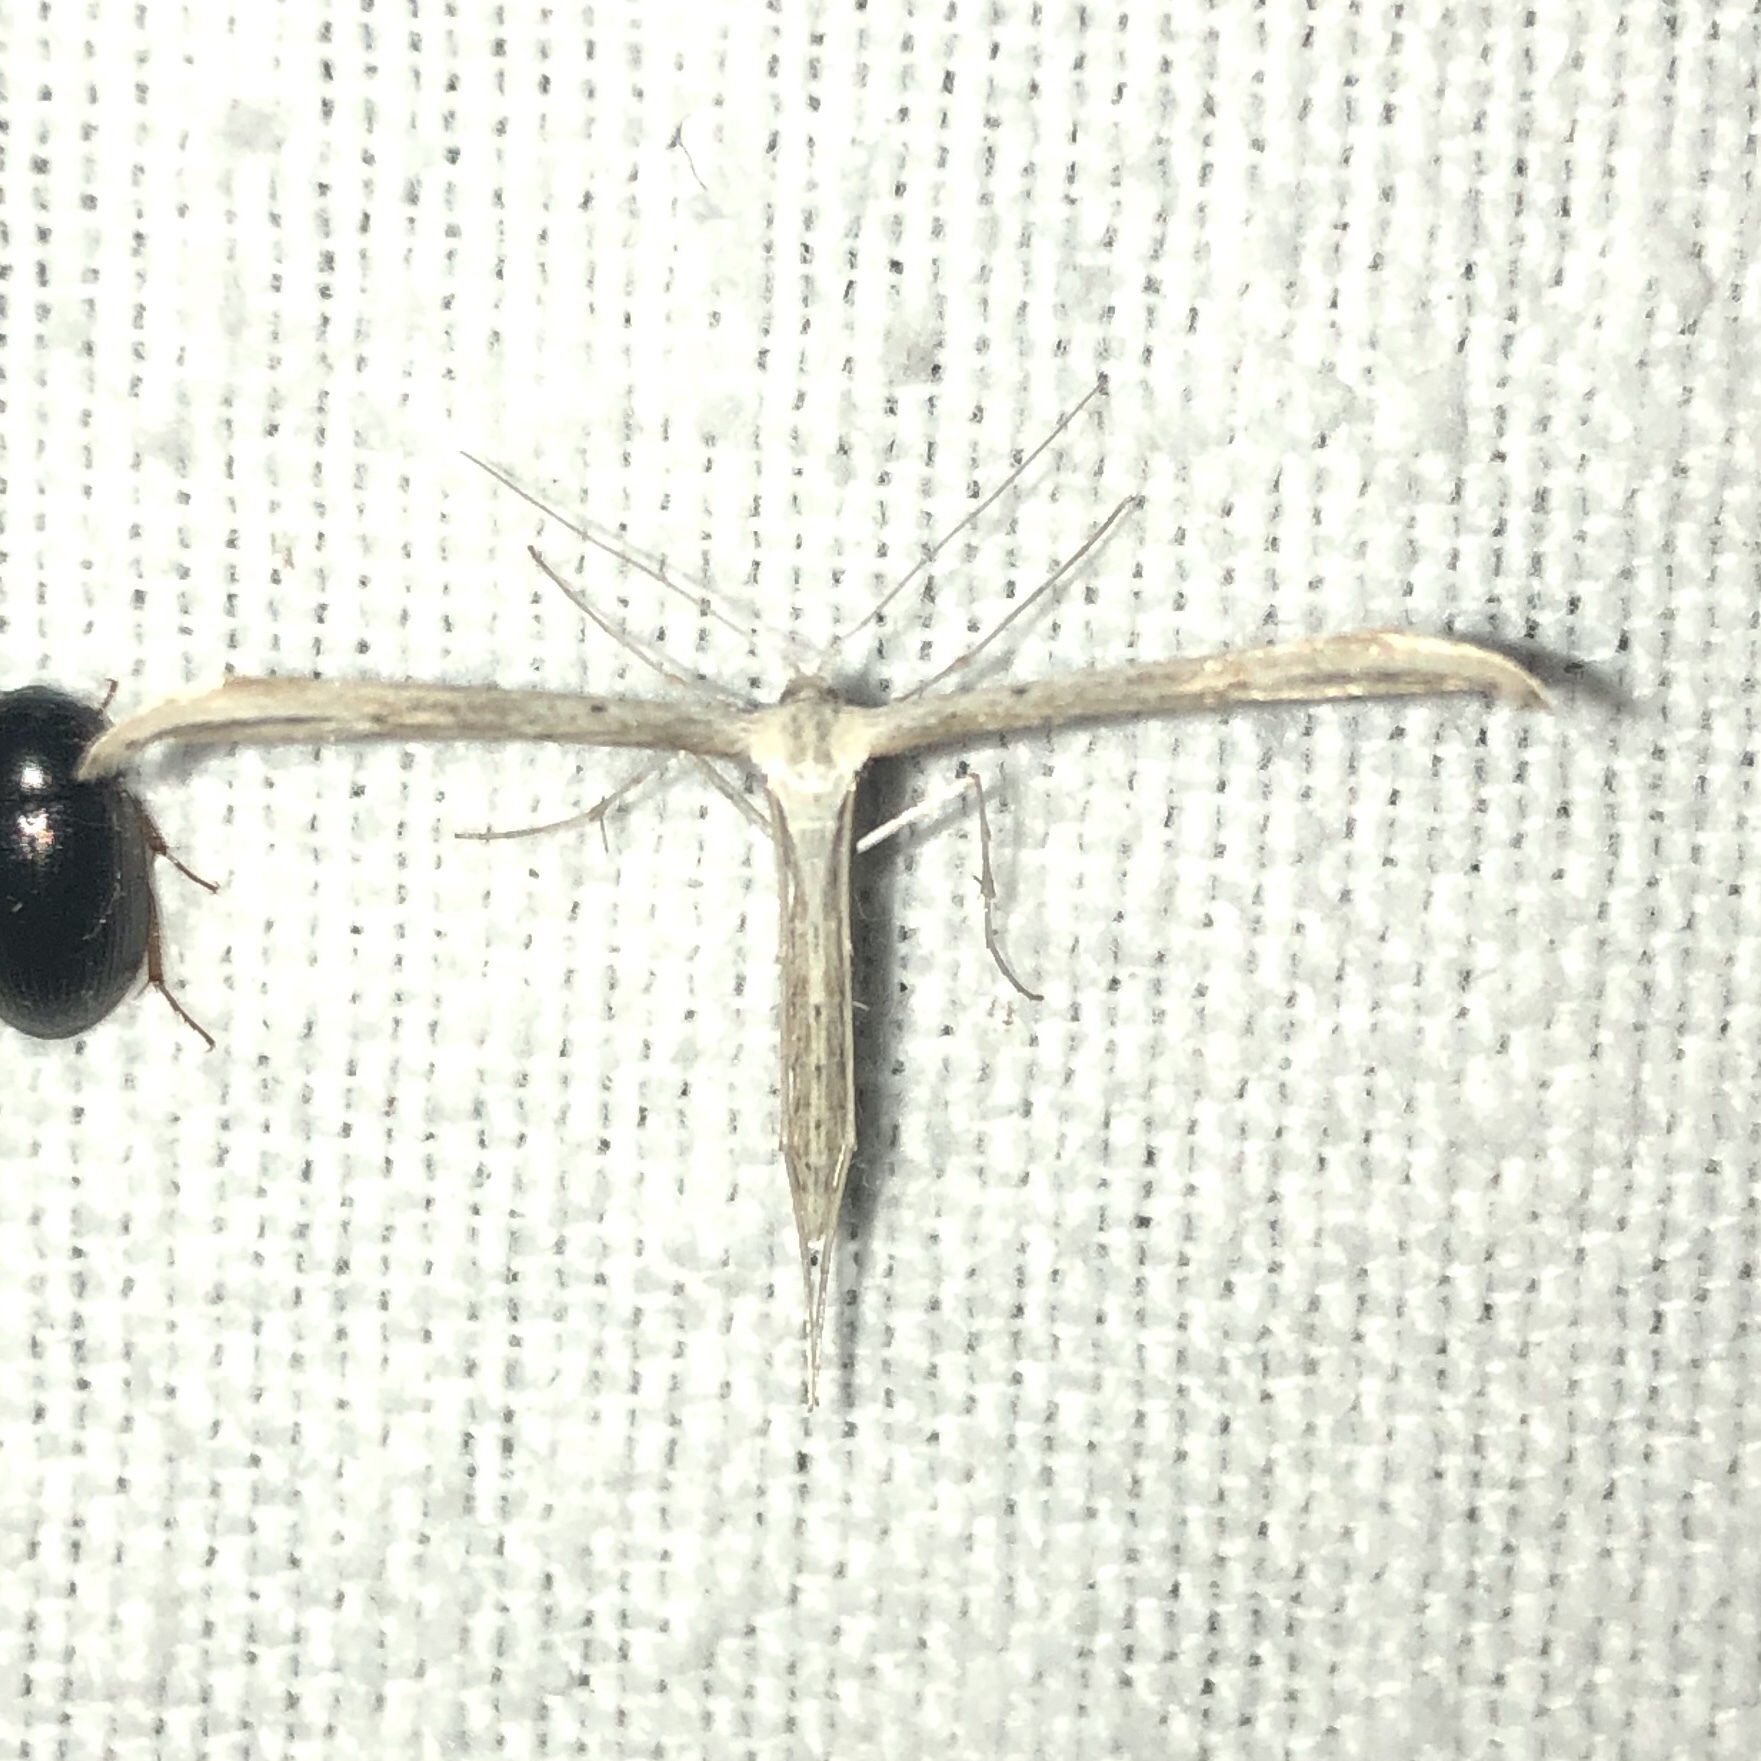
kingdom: Animalia
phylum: Arthropoda
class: Insecta
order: Lepidoptera
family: Pterophoridae
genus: Emmelina
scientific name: Emmelina monodactyla
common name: Common plume
